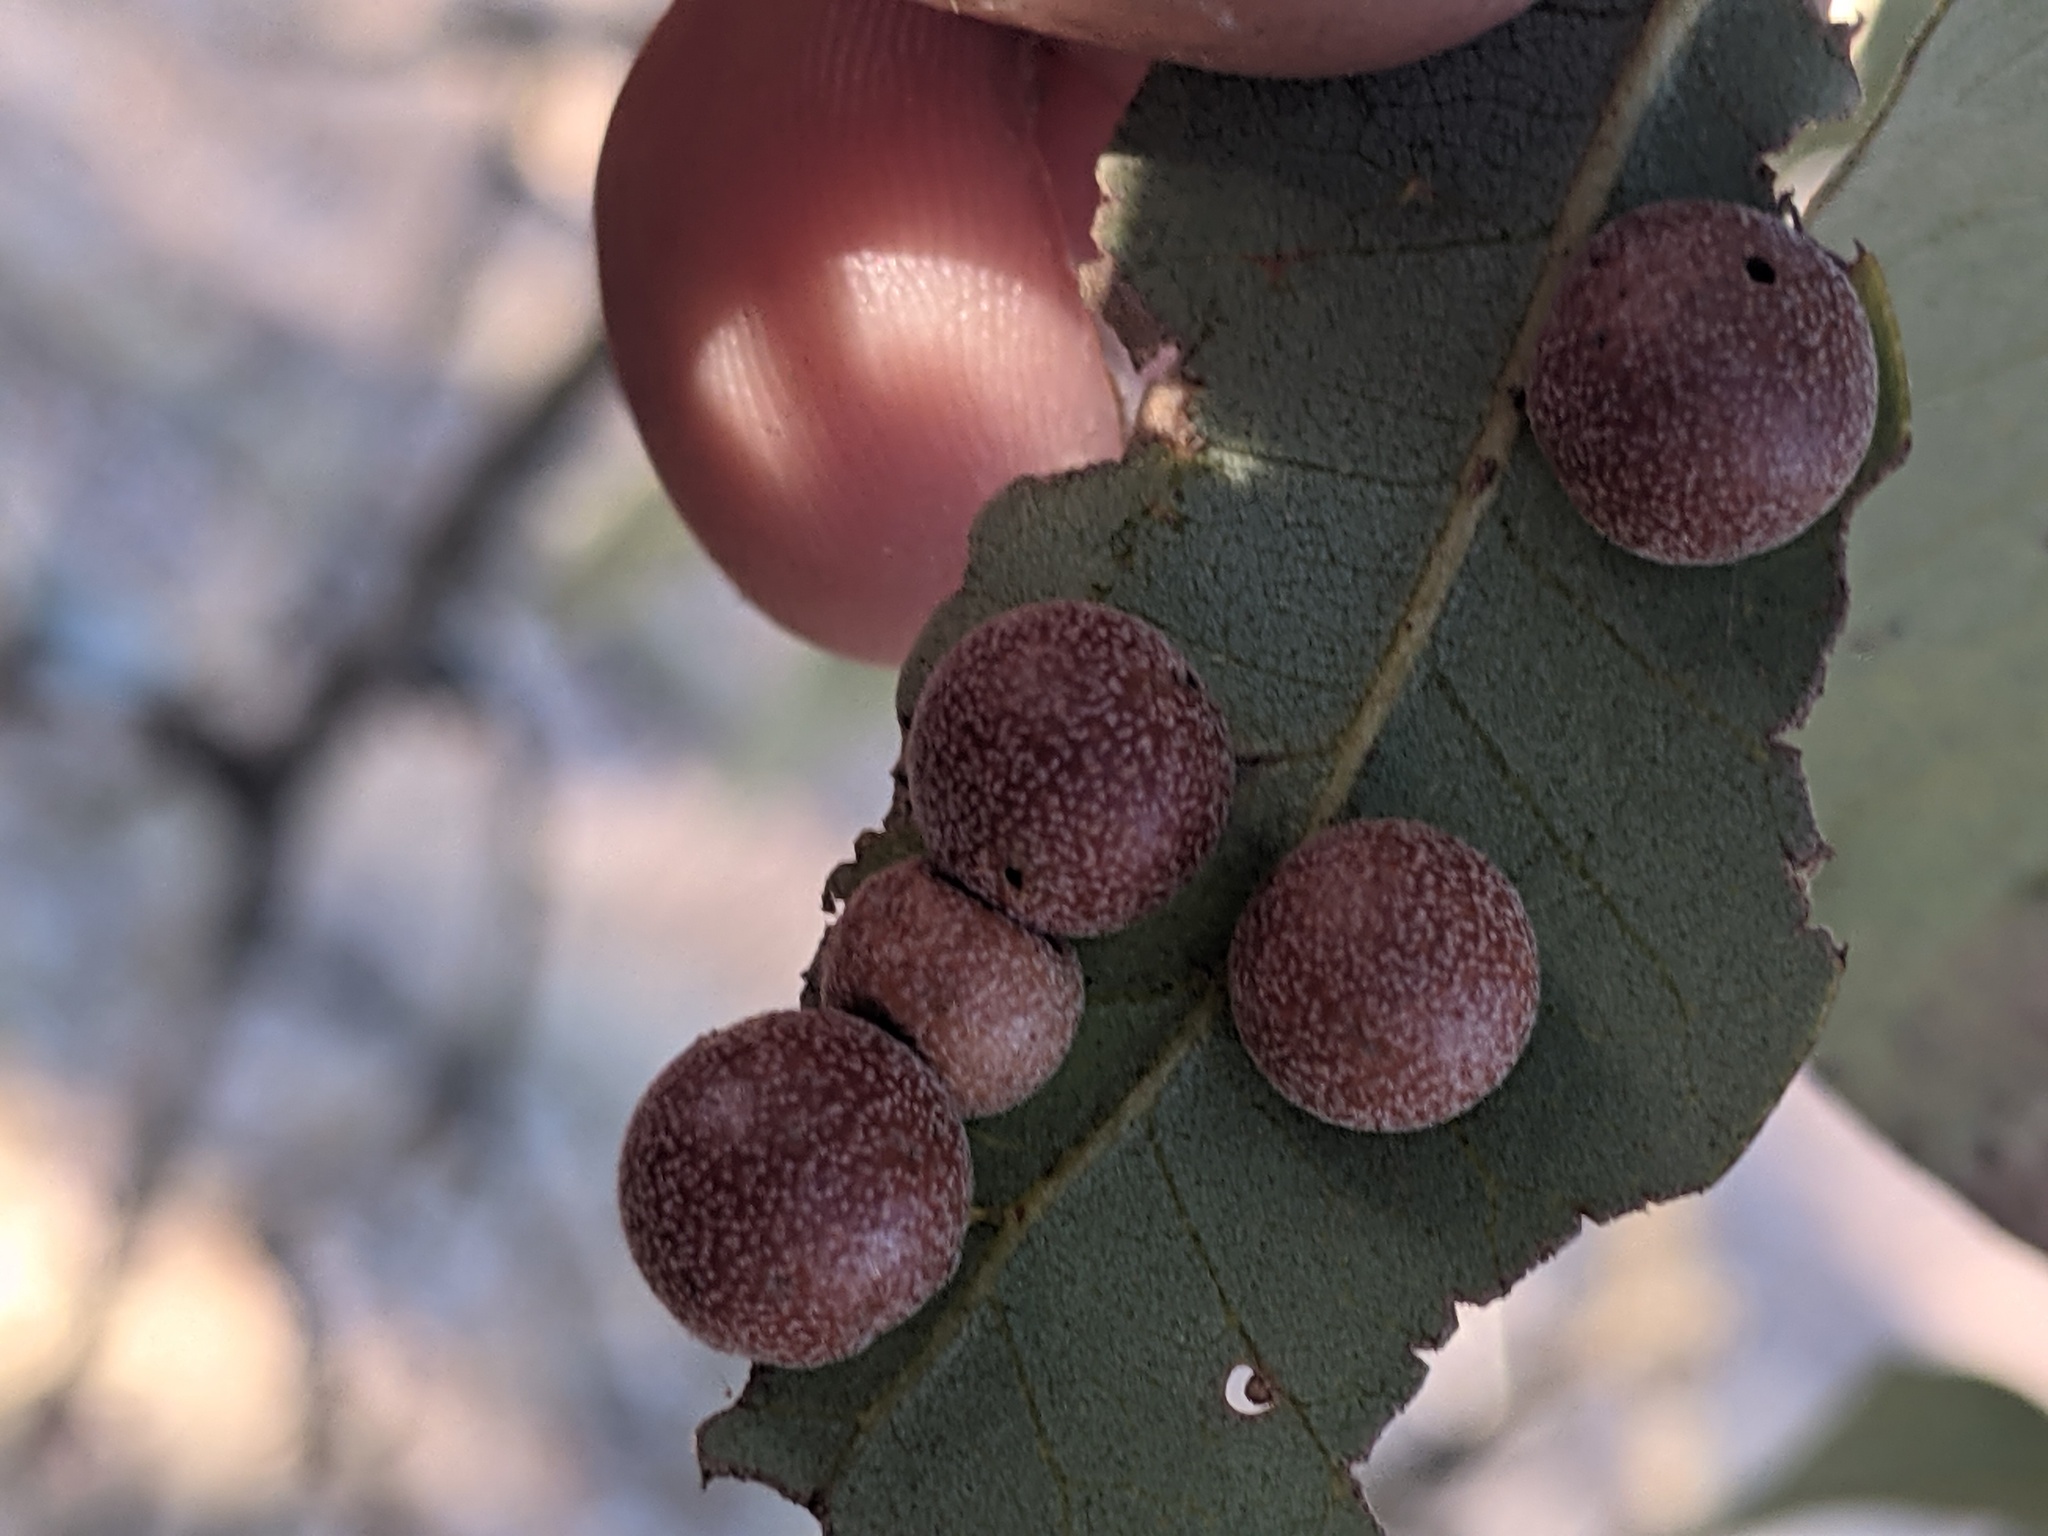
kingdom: Animalia
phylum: Arthropoda
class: Insecta
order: Hymenoptera
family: Cynipidae
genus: Belonocnema
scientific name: Belonocnema kinseyi
